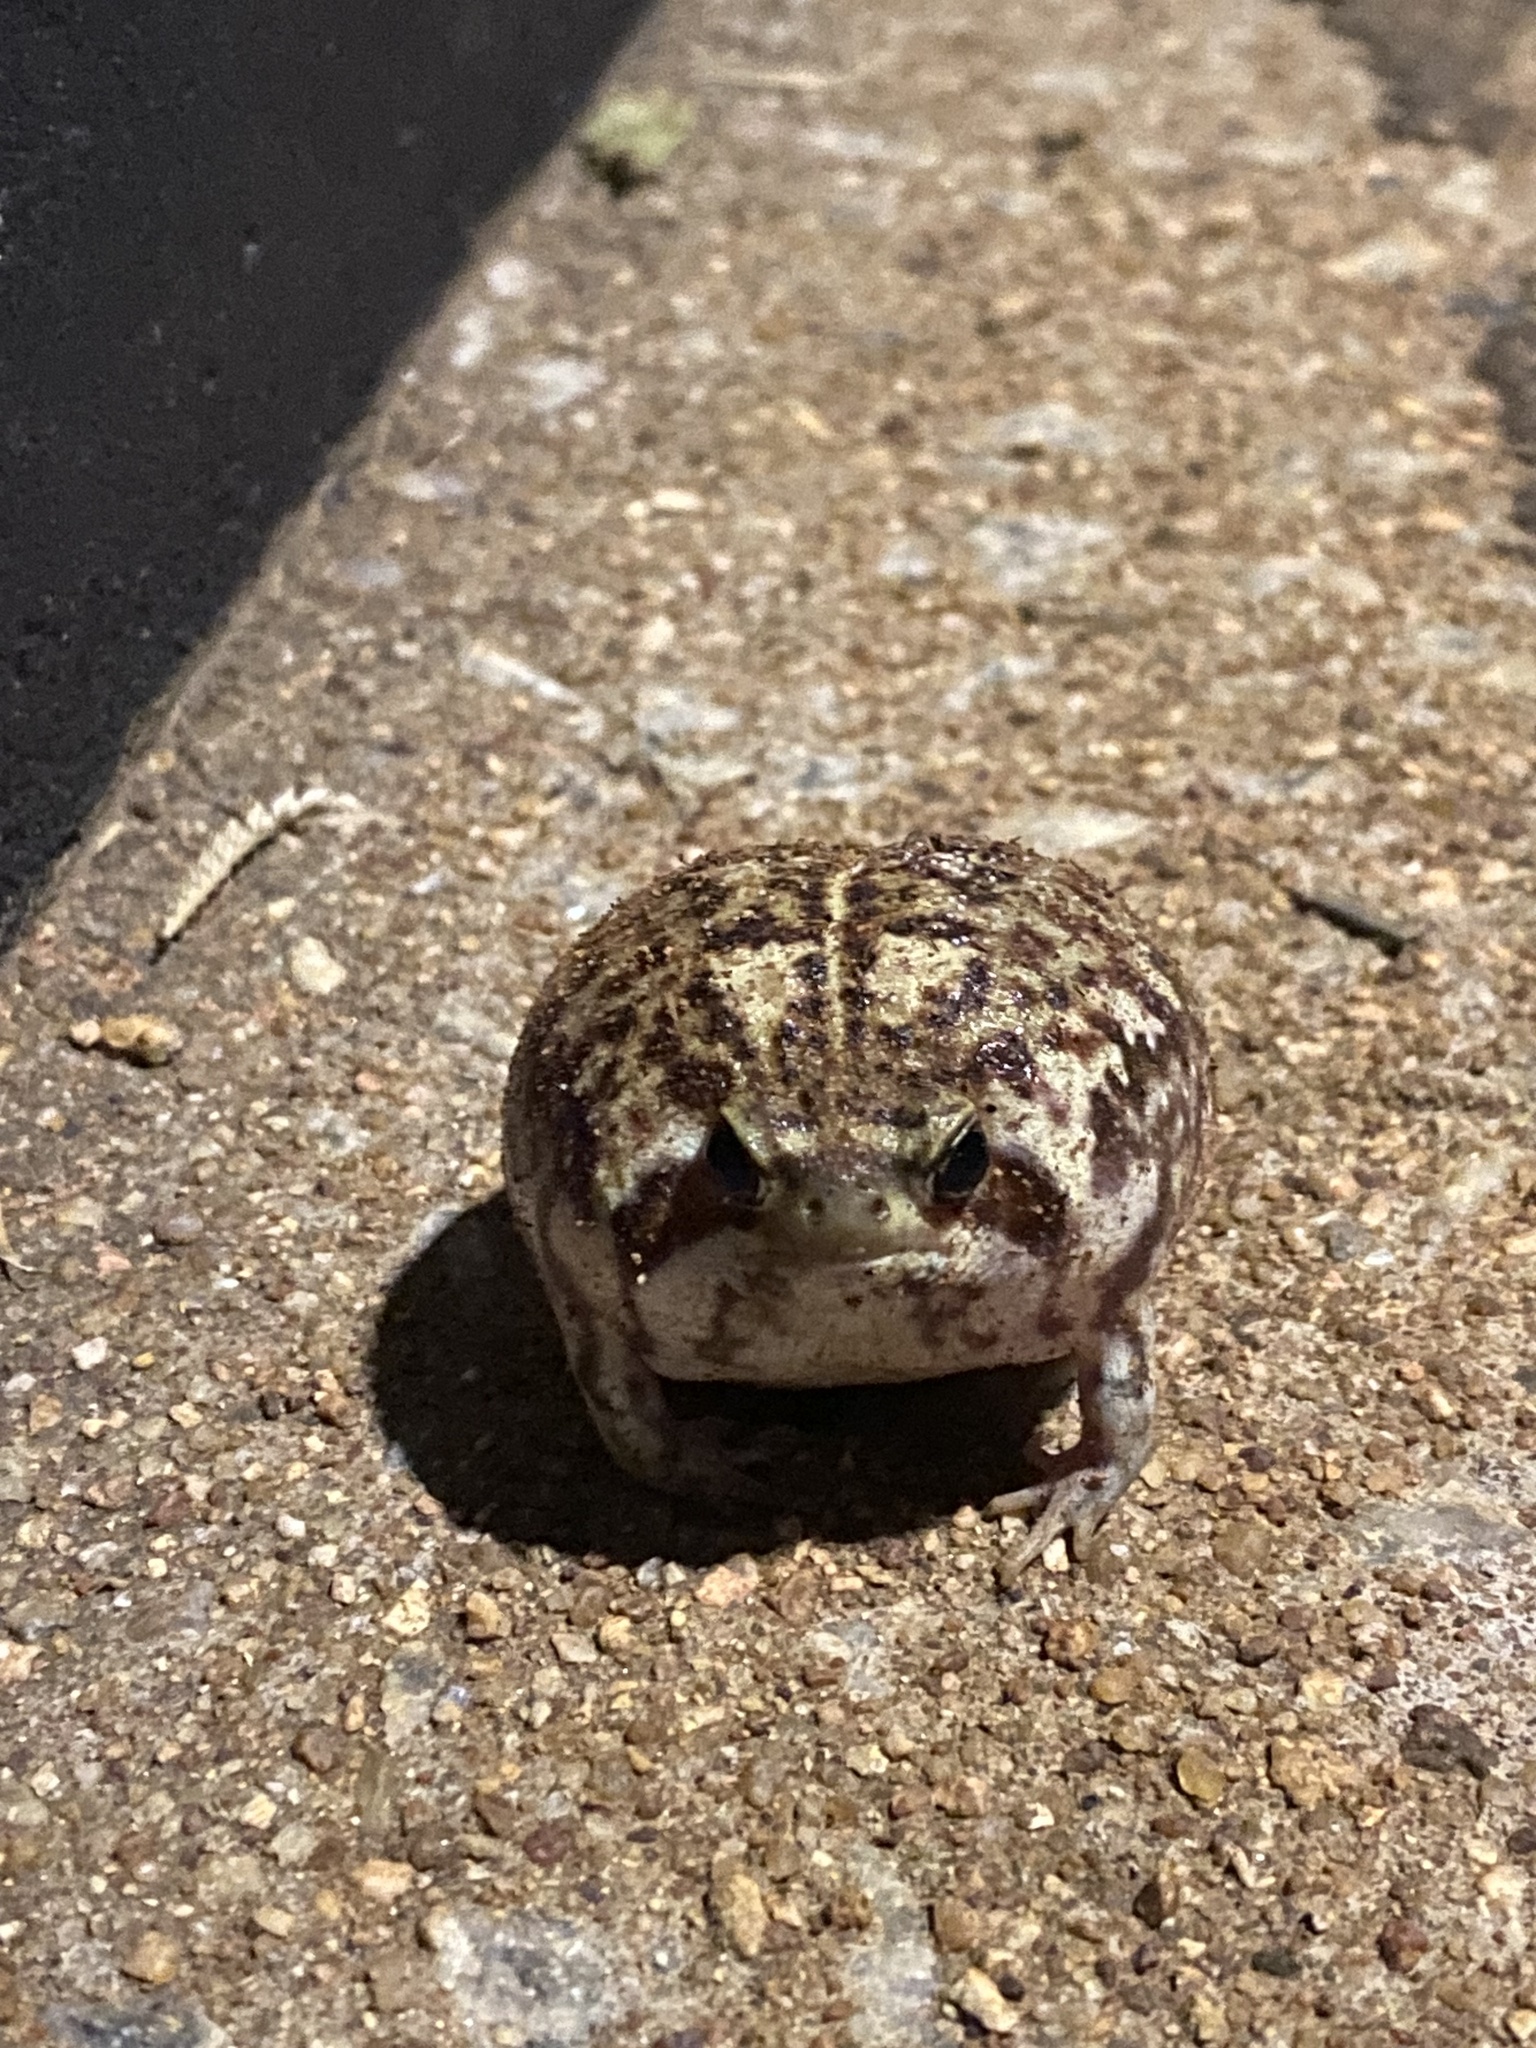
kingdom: Animalia
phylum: Chordata
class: Amphibia
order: Anura
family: Brevicipitidae
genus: Breviceps
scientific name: Breviceps adspersus
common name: Common rain frog
